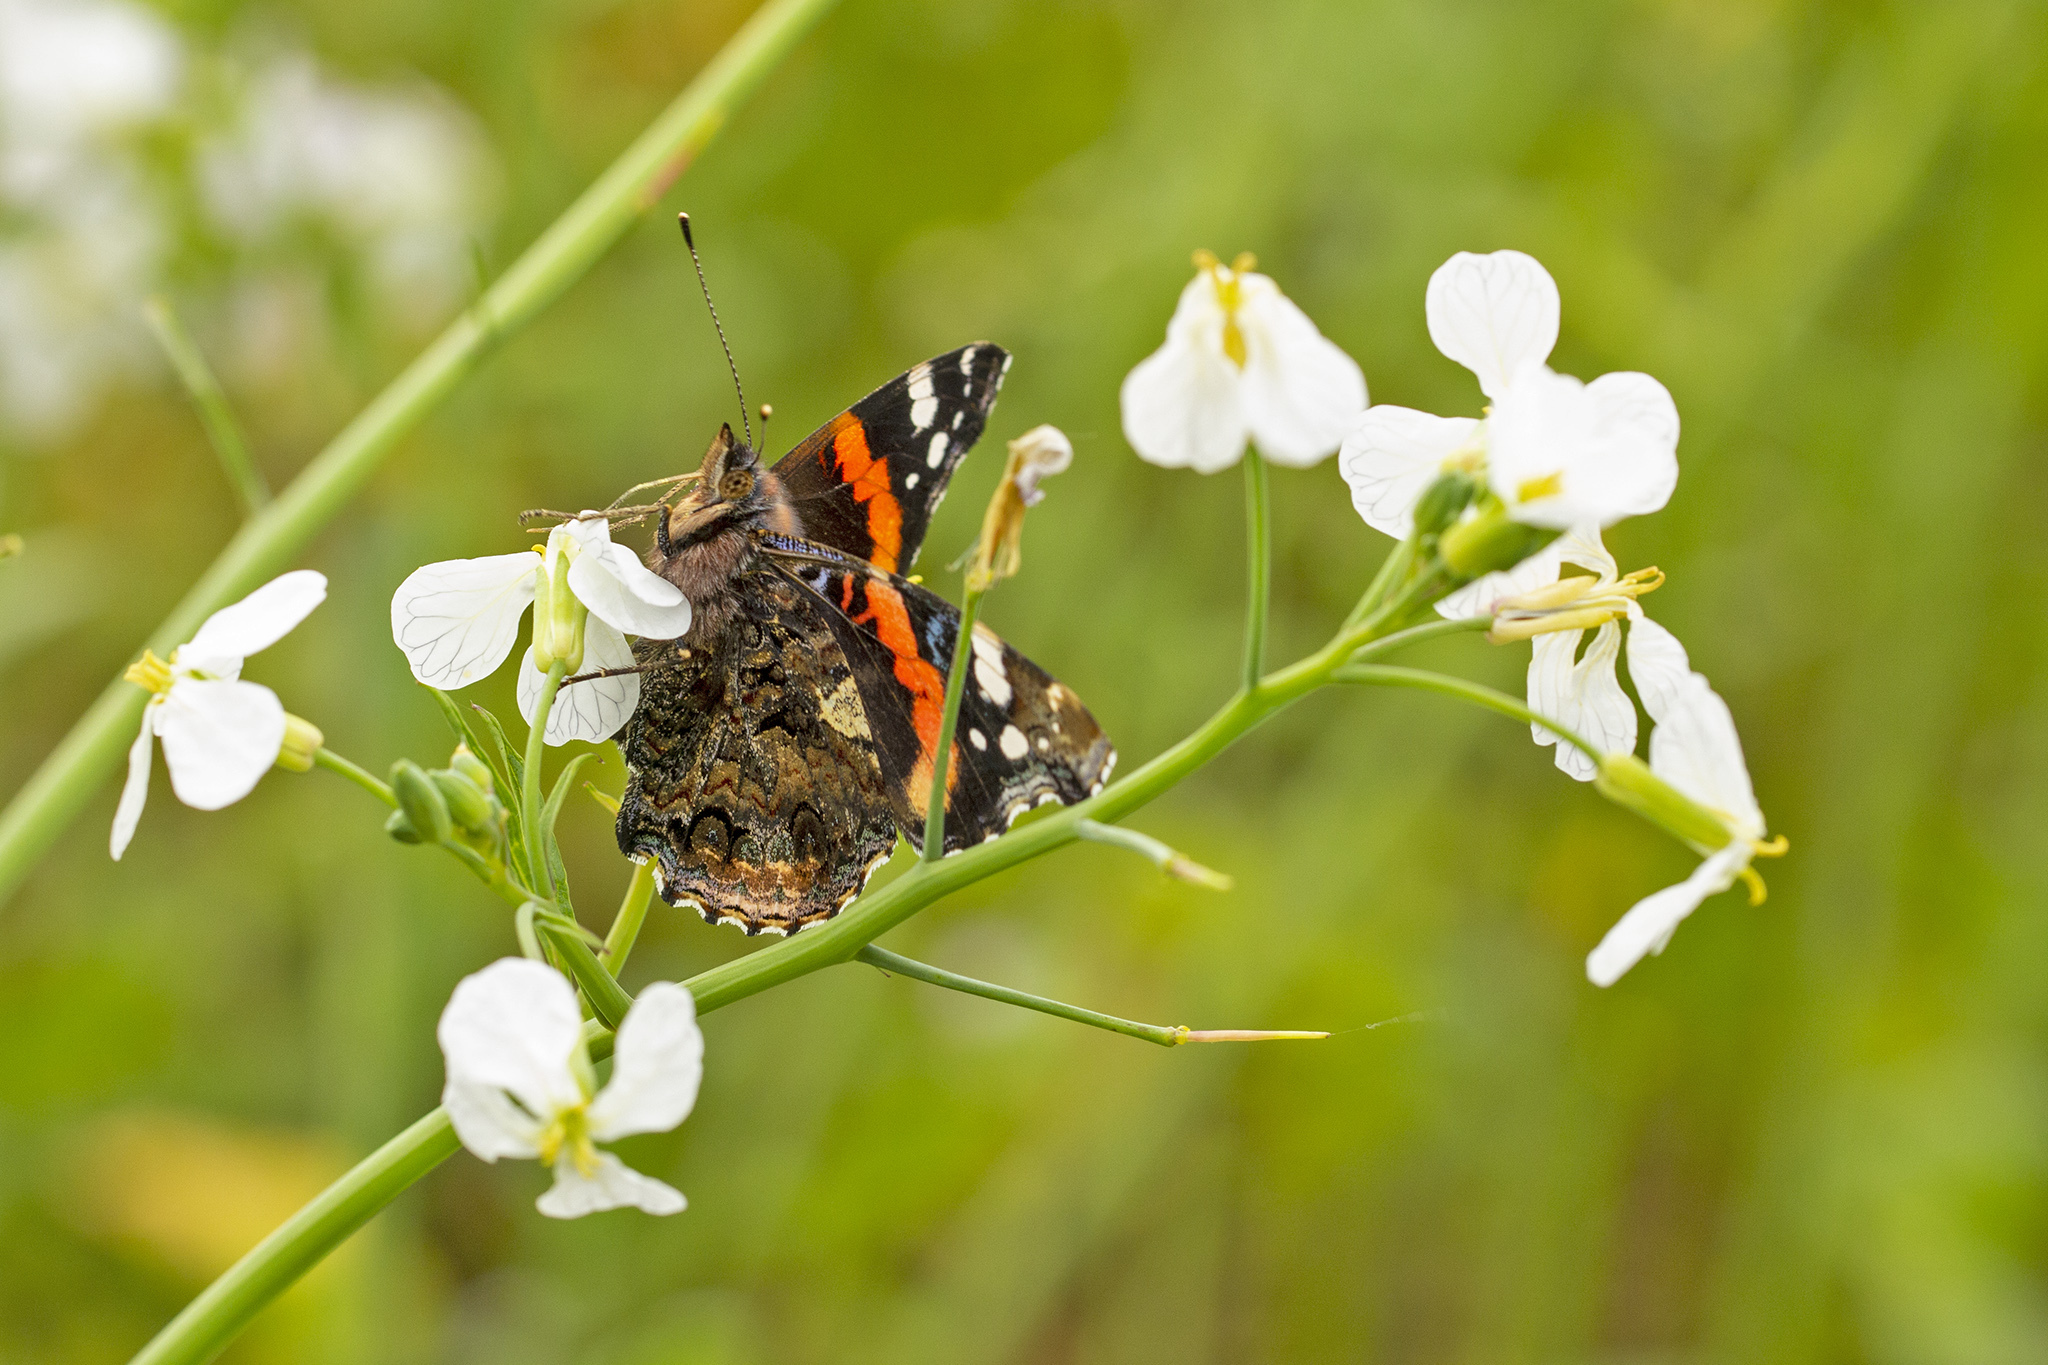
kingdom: Animalia
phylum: Arthropoda
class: Insecta
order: Lepidoptera
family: Nymphalidae
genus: Vanessa
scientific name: Vanessa atalanta
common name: Red admiral
